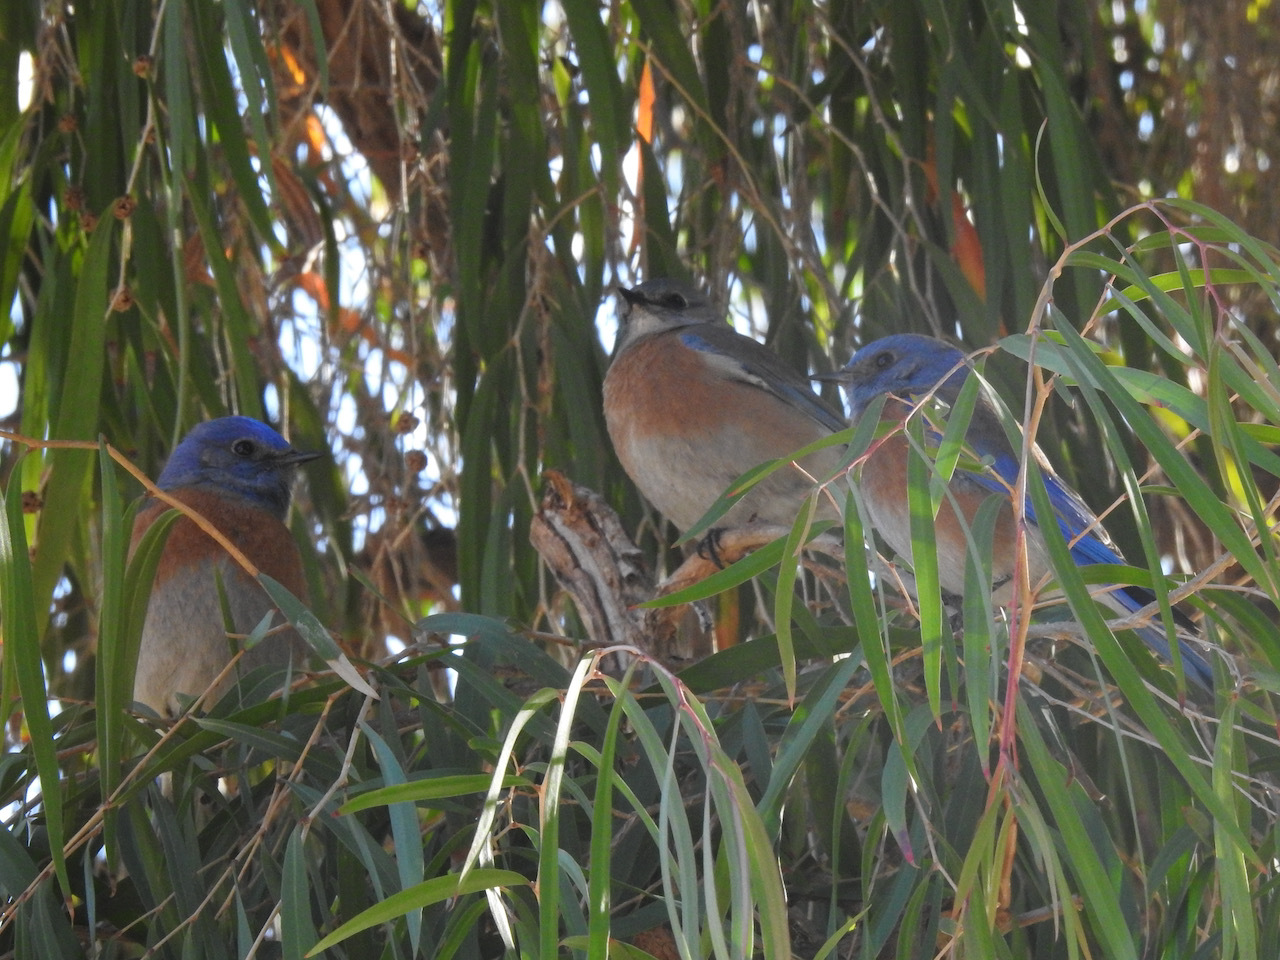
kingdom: Animalia
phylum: Chordata
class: Aves
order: Passeriformes
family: Turdidae
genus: Sialia
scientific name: Sialia mexicana
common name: Western bluebird
